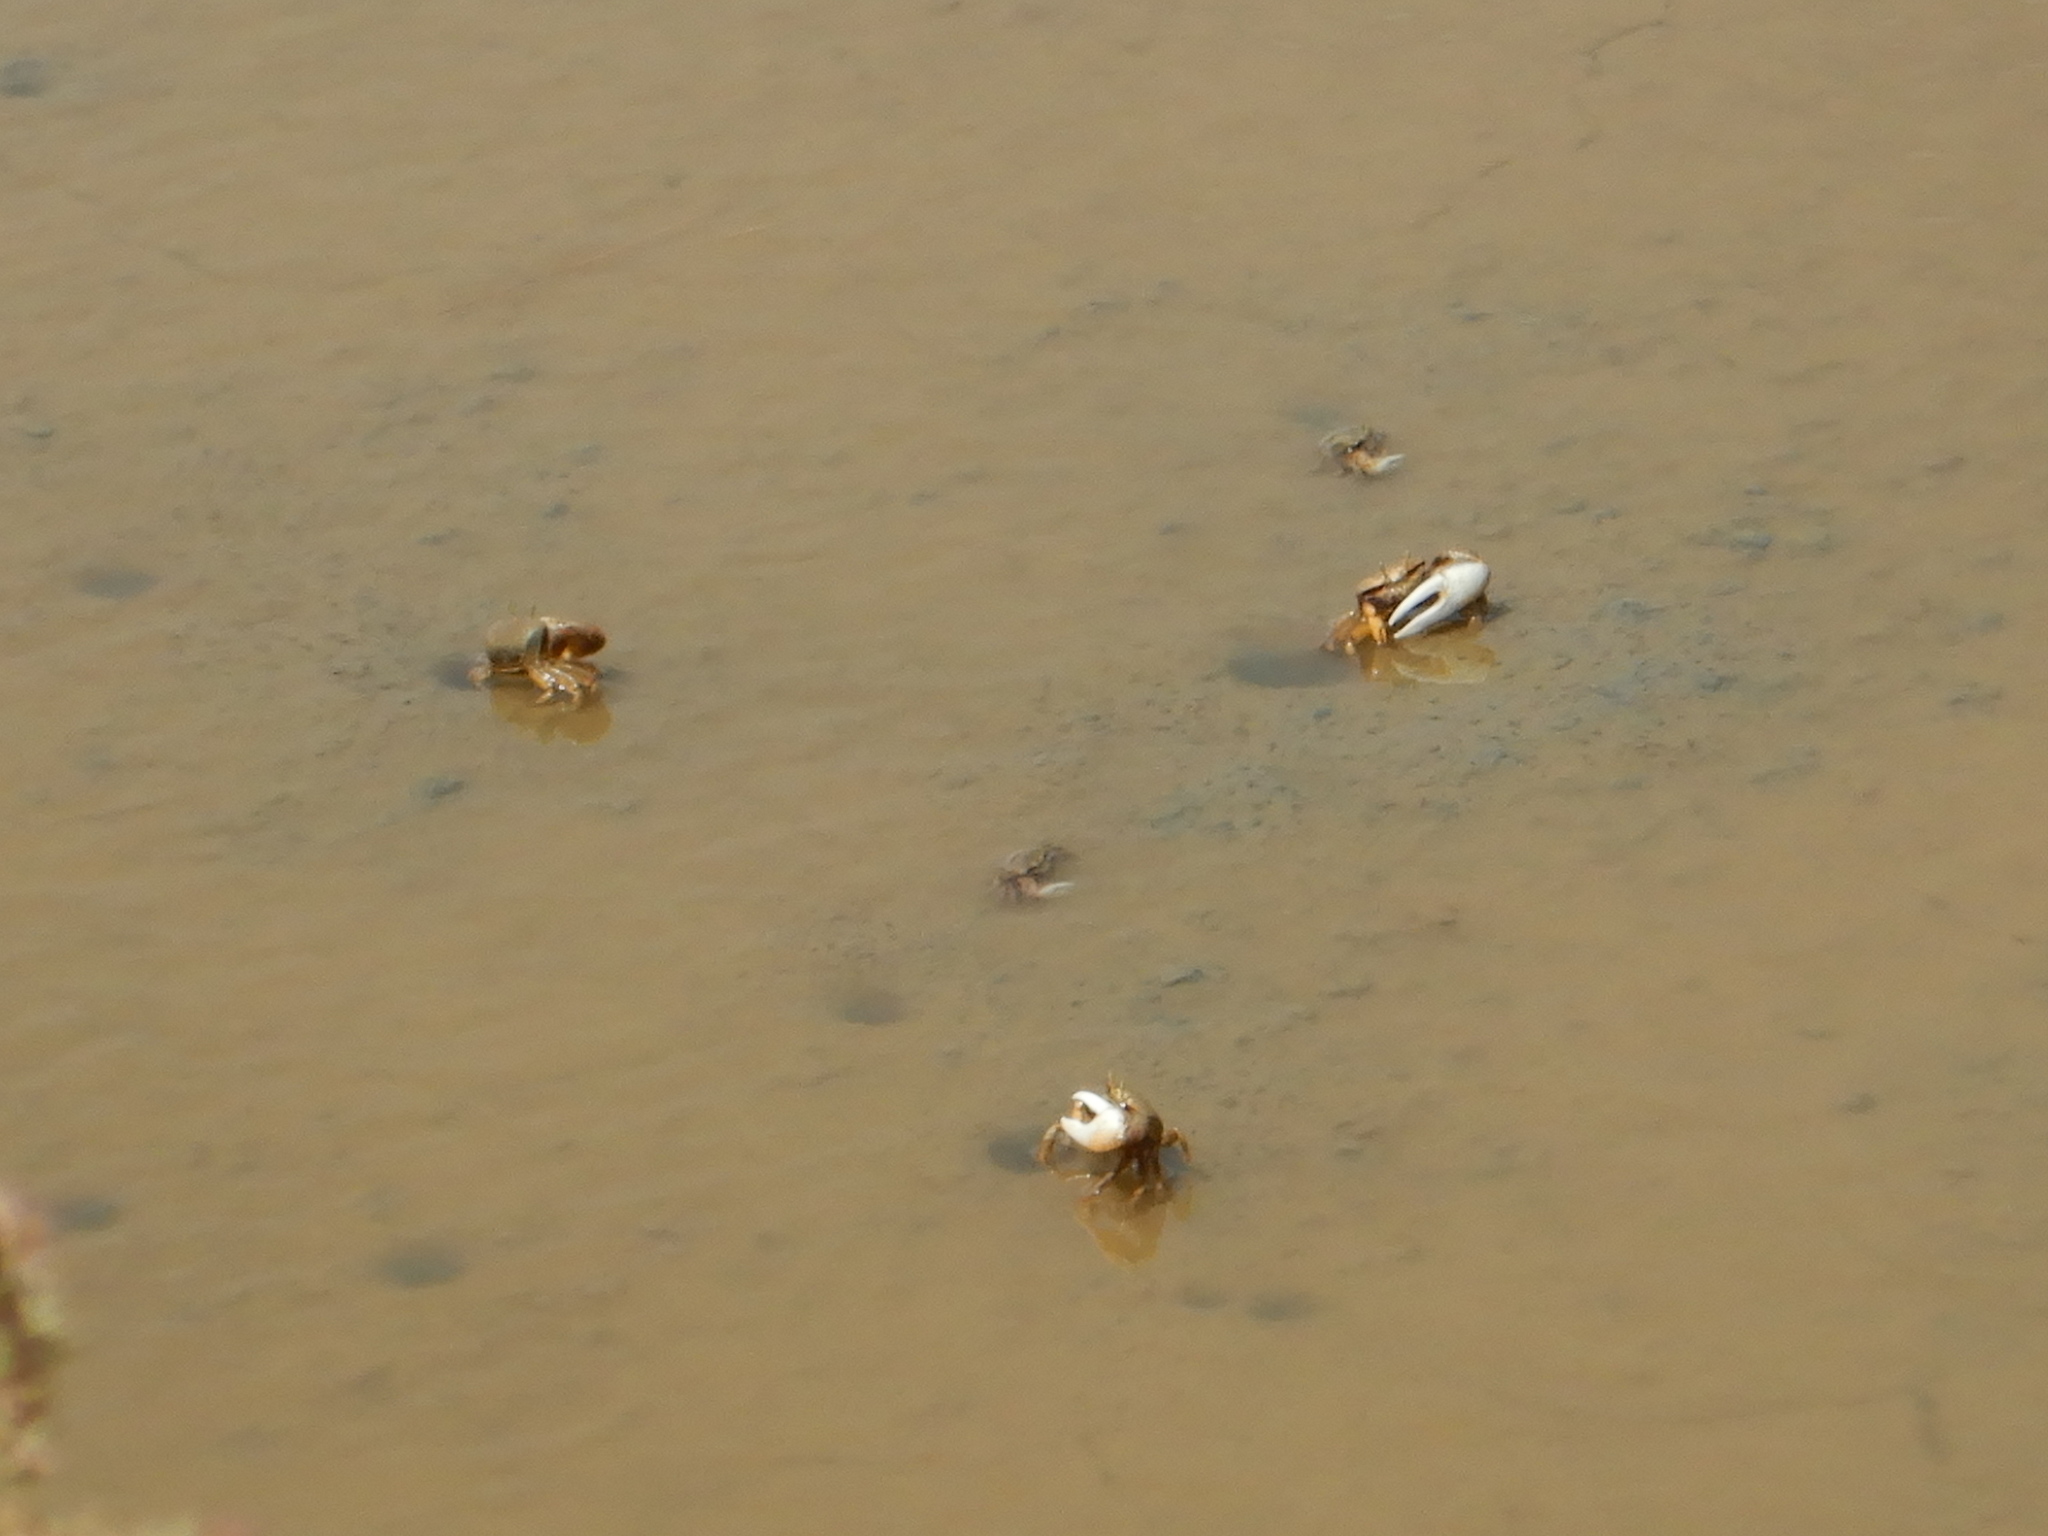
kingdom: Animalia
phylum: Arthropoda
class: Malacostraca
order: Decapoda
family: Ocypodidae
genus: Afruca
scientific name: Afruca tangeri
